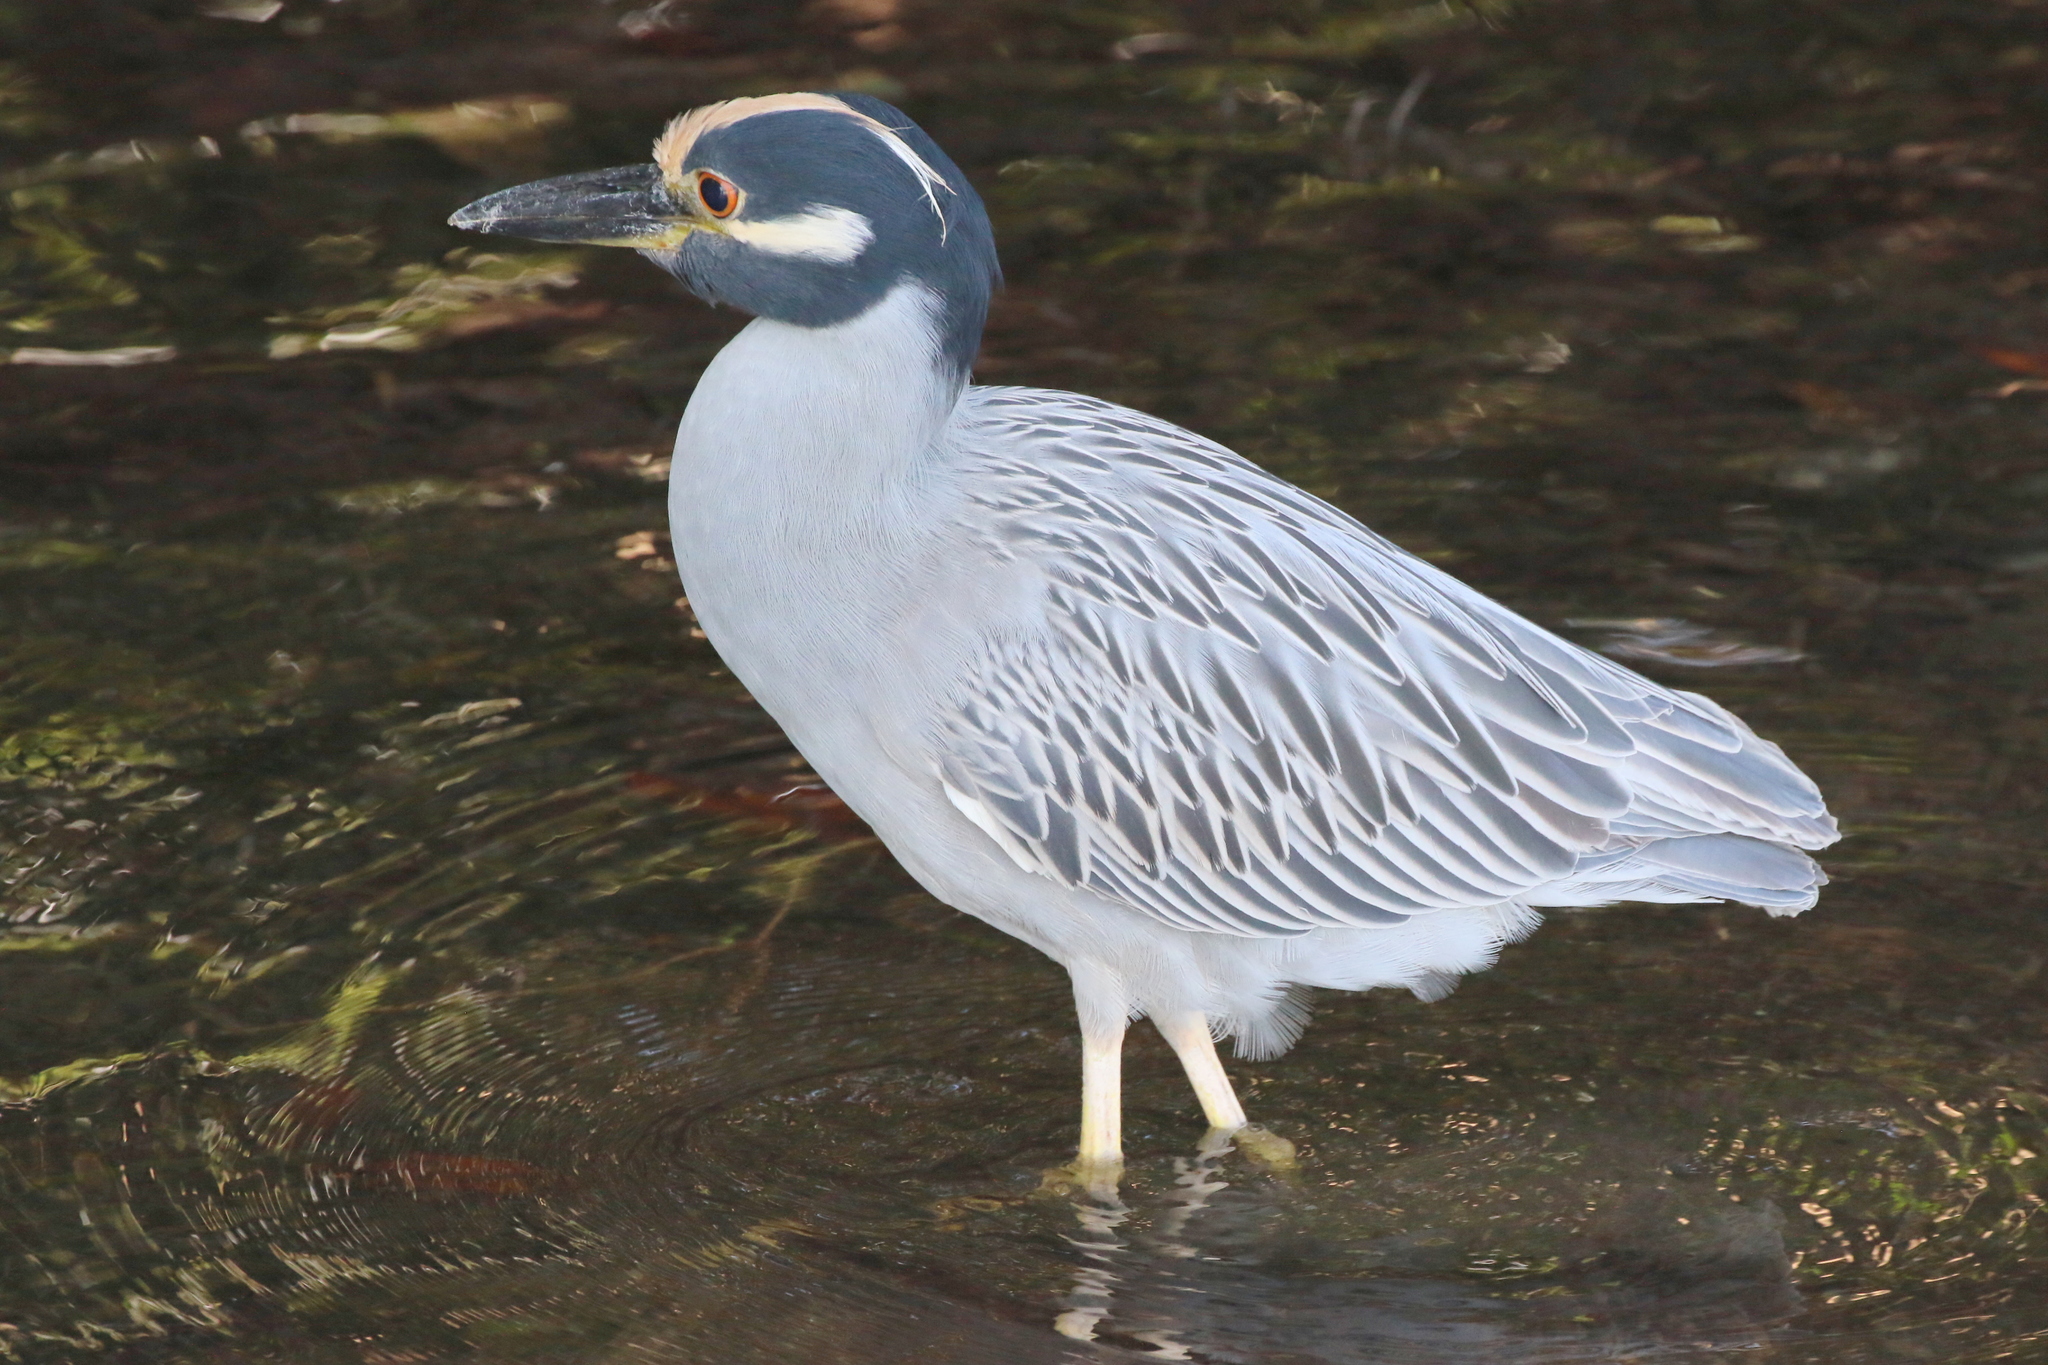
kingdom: Animalia
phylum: Chordata
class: Aves
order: Pelecaniformes
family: Ardeidae
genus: Nyctanassa
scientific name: Nyctanassa violacea
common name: Yellow-crowned night heron
